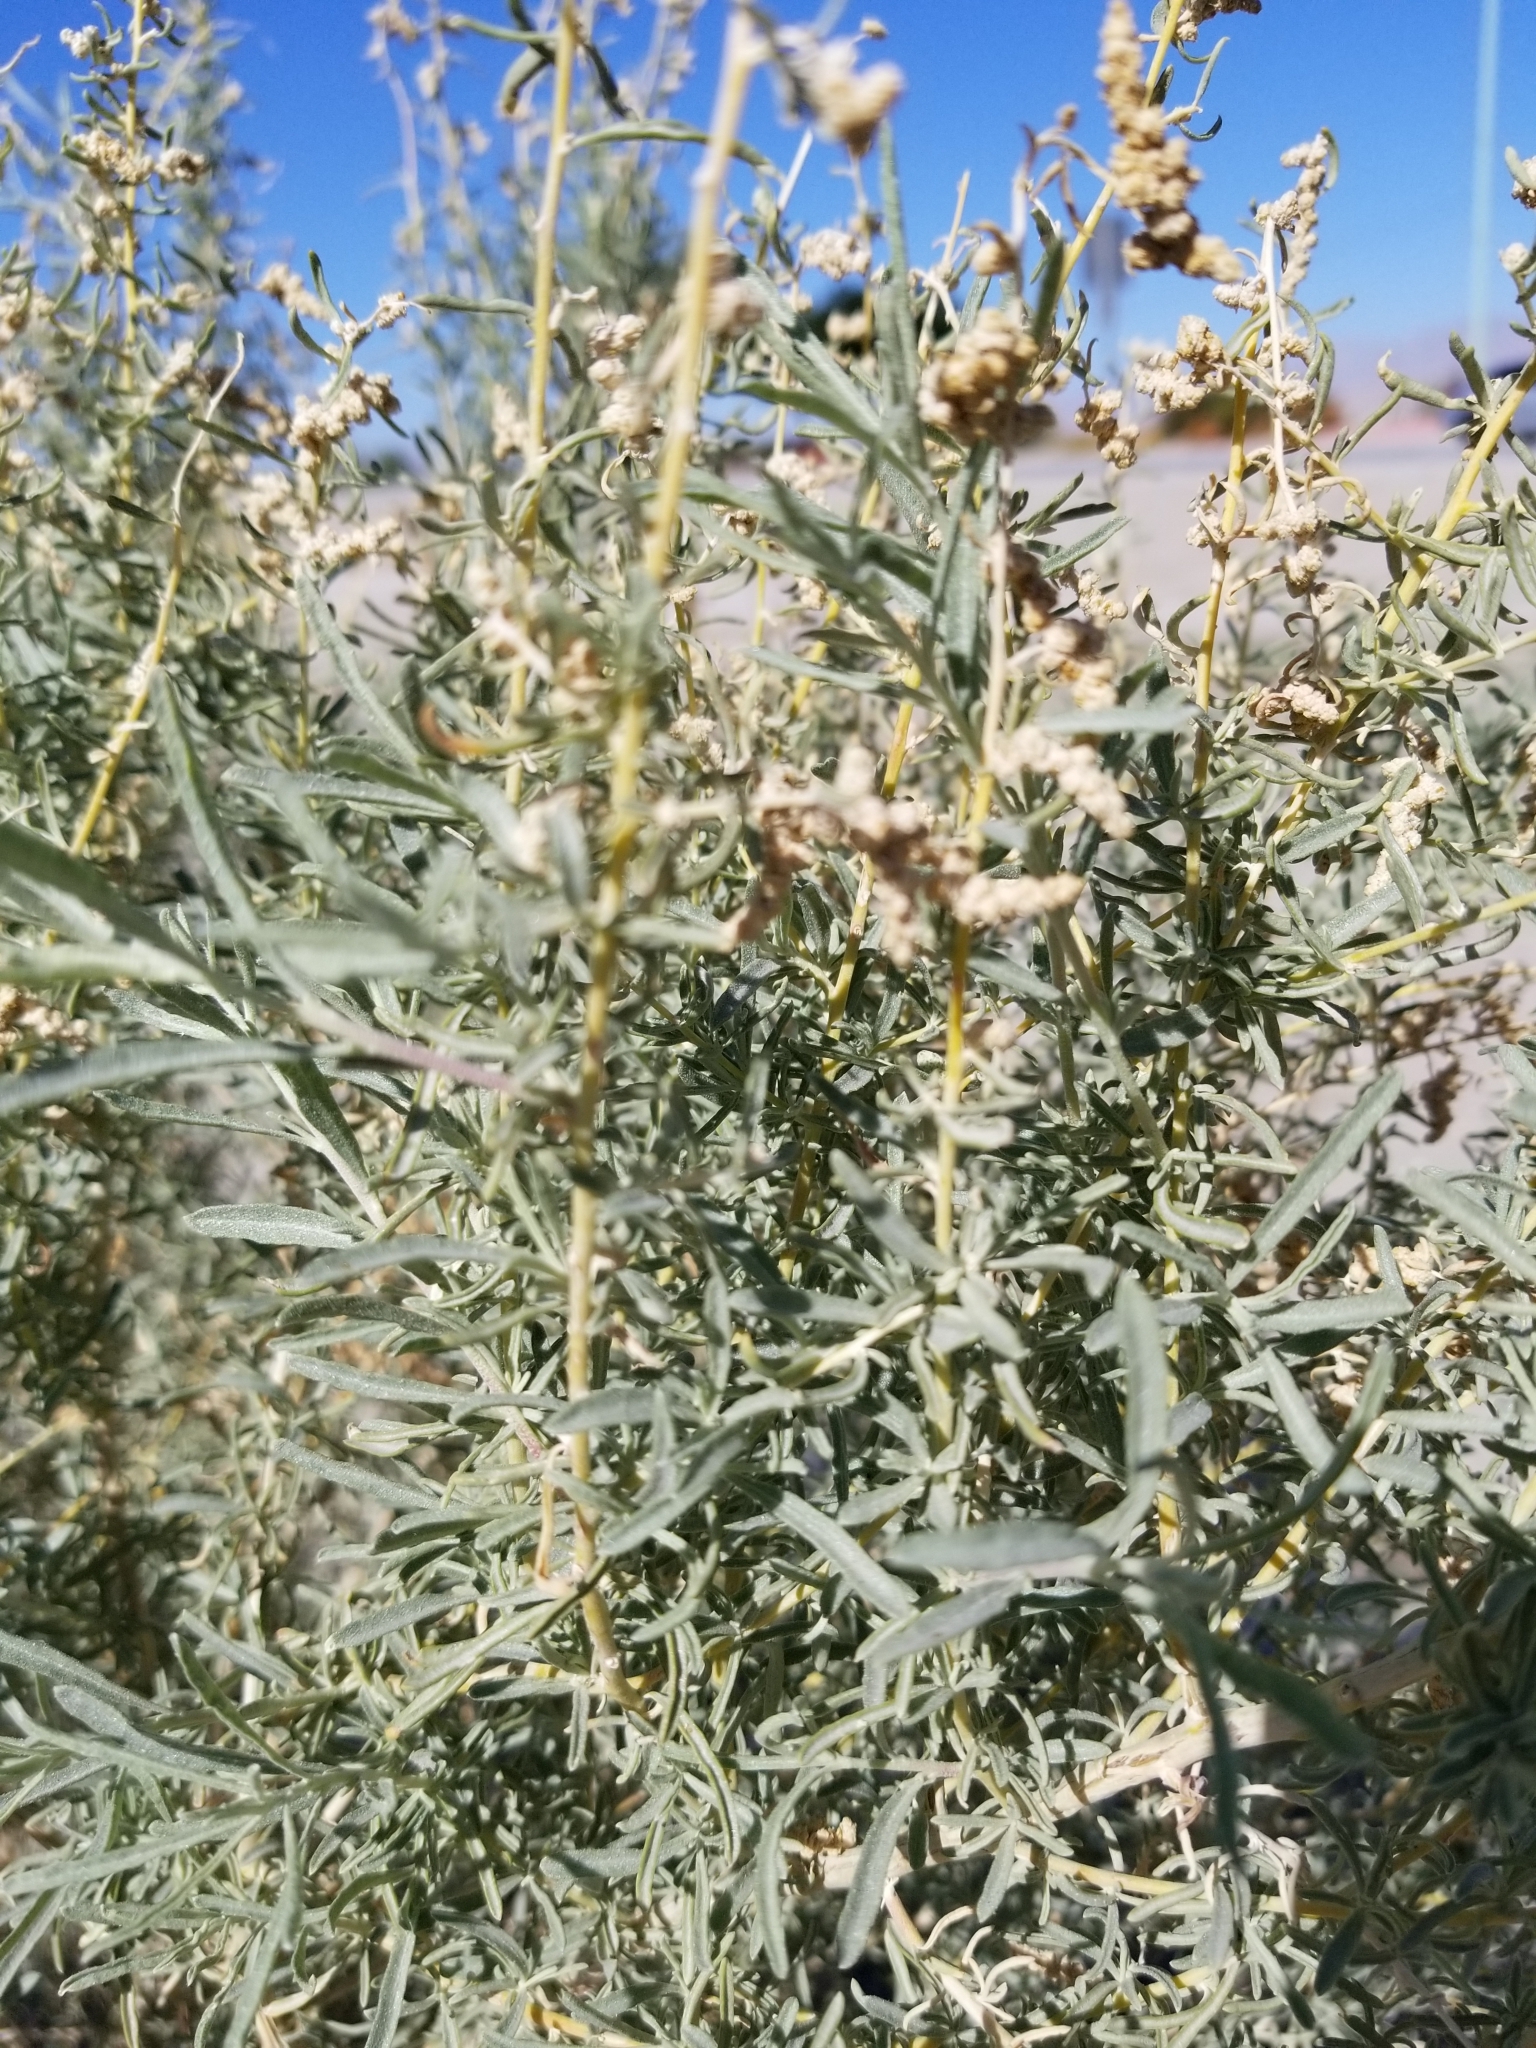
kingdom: Plantae
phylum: Tracheophyta
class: Magnoliopsida
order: Caryophyllales
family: Amaranthaceae
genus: Atriplex
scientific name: Atriplex canescens
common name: Four-wing saltbush
